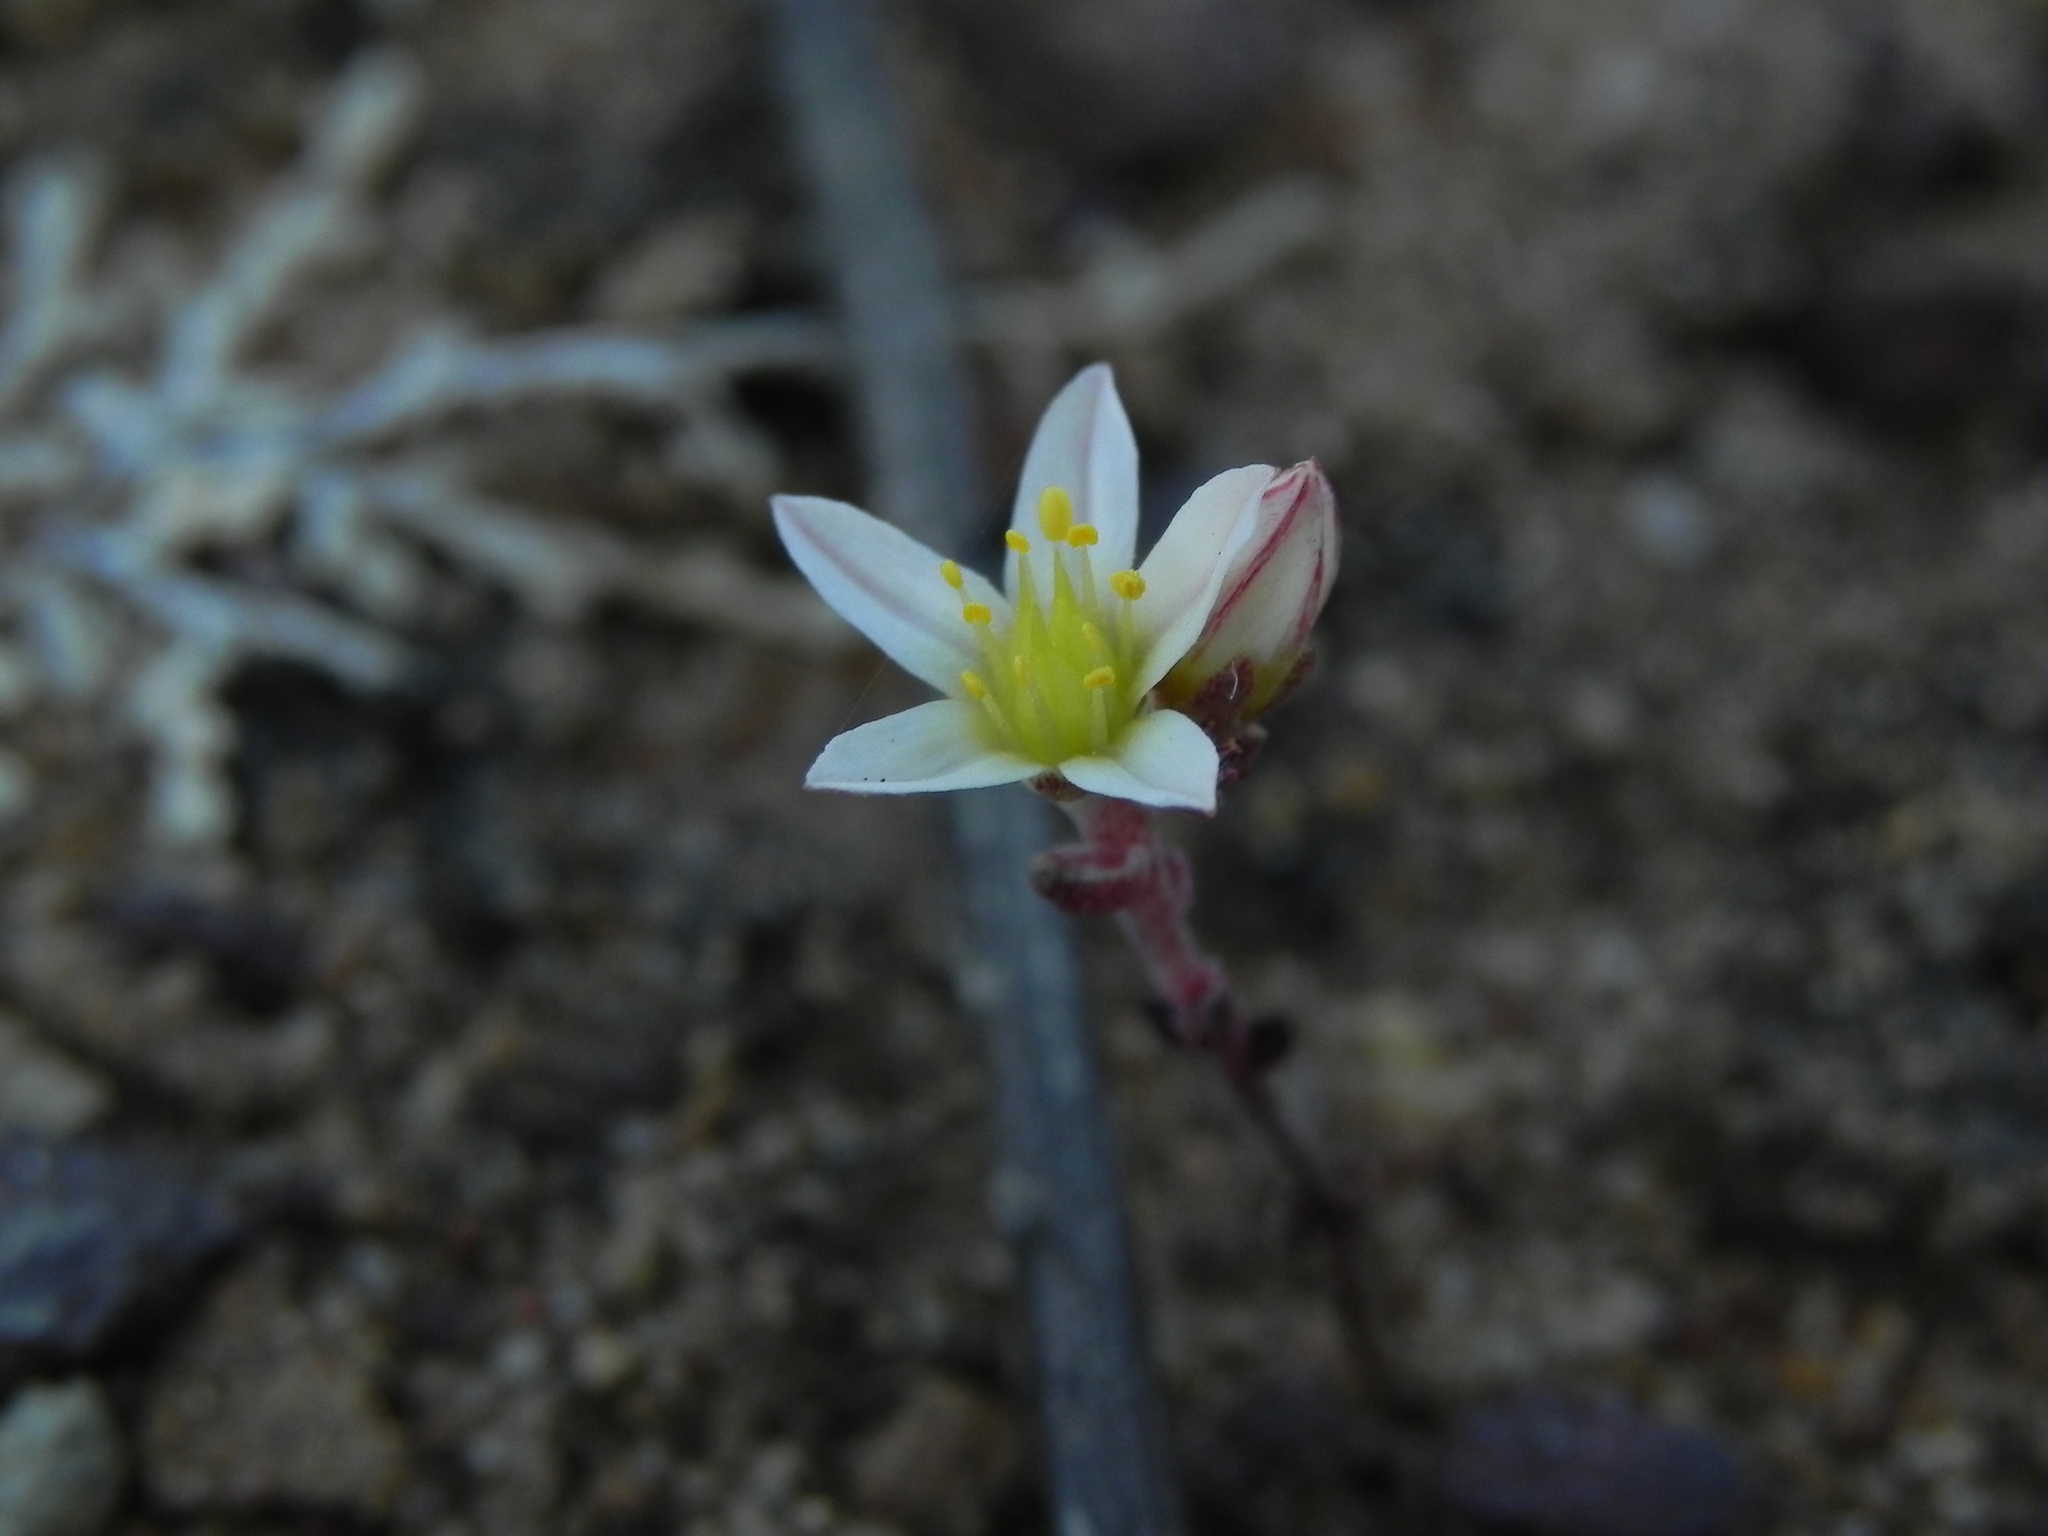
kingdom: Plantae
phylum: Tracheophyta
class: Magnoliopsida
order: Saxifragales
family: Crassulaceae
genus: Dudleya
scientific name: Dudleya blochmaniae
